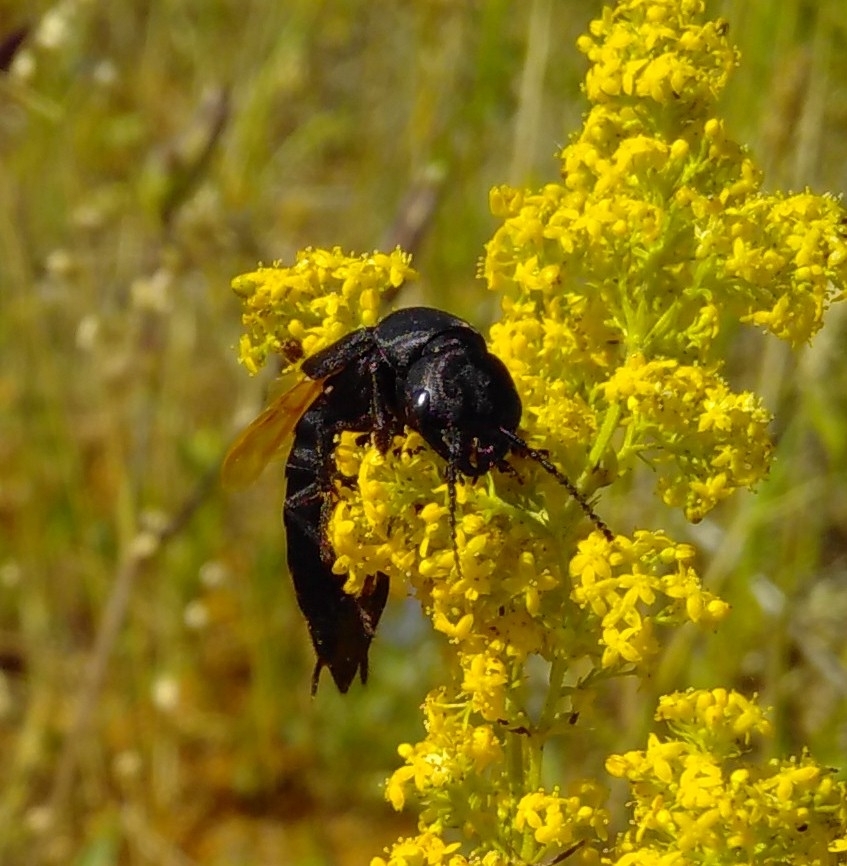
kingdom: Animalia
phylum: Arthropoda
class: Insecta
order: Coleoptera
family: Staphylinidae
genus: Ocypus
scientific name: Ocypus olens
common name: Devil's coach-horse
